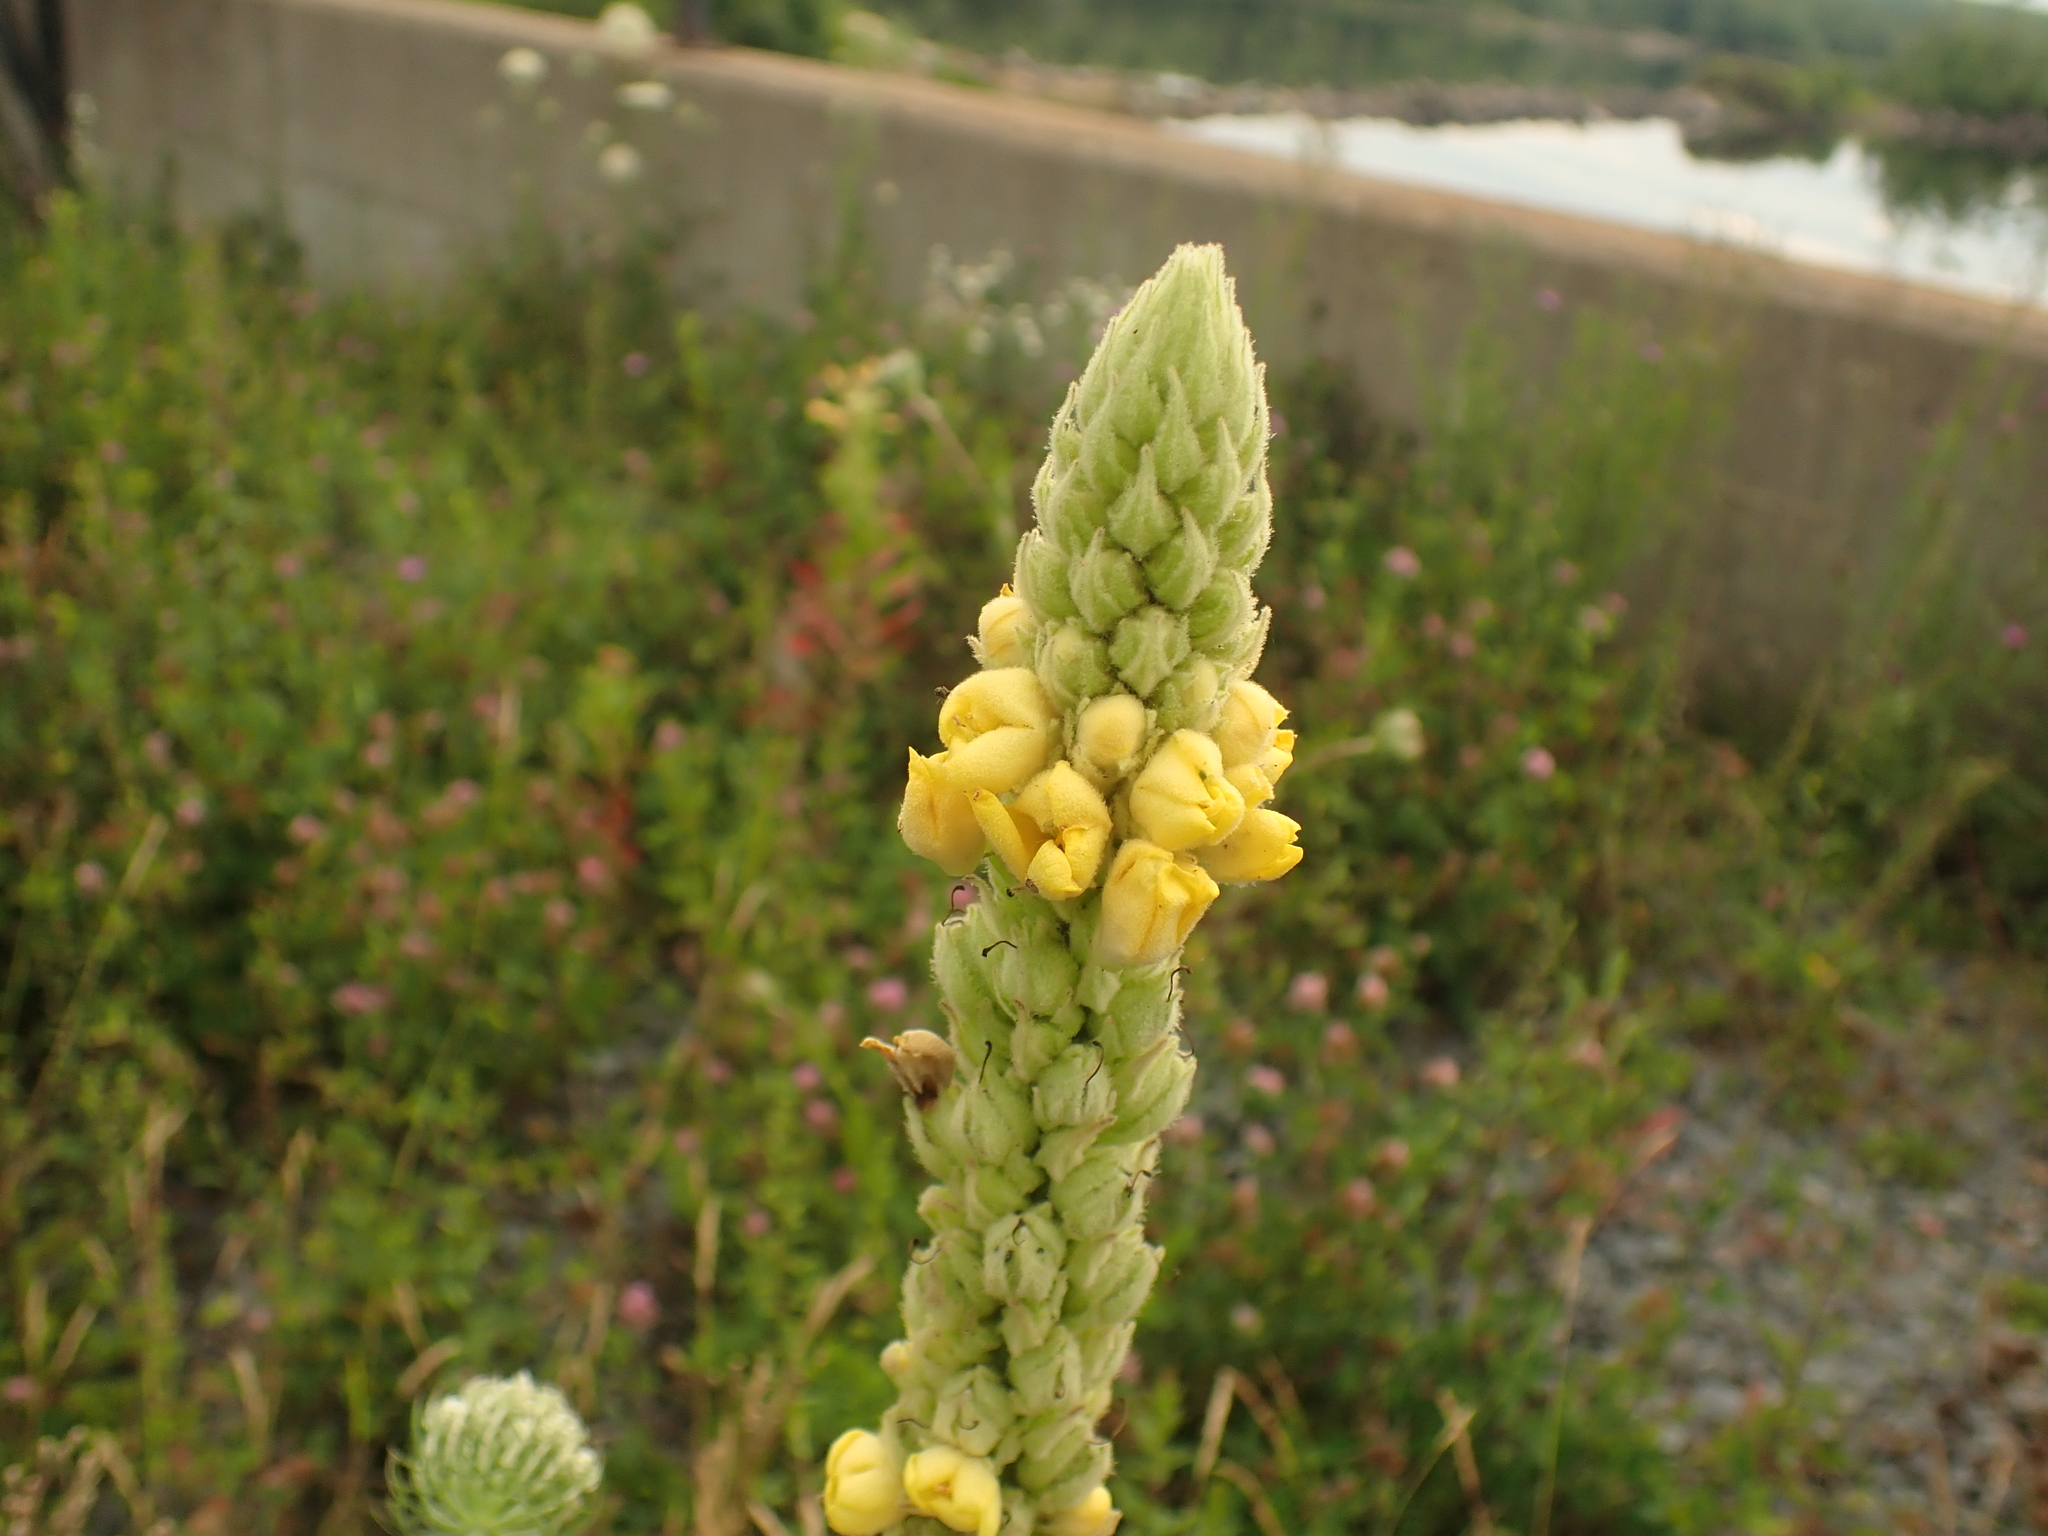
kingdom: Plantae
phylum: Tracheophyta
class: Magnoliopsida
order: Lamiales
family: Scrophulariaceae
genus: Verbascum
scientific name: Verbascum thapsus
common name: Common mullein
